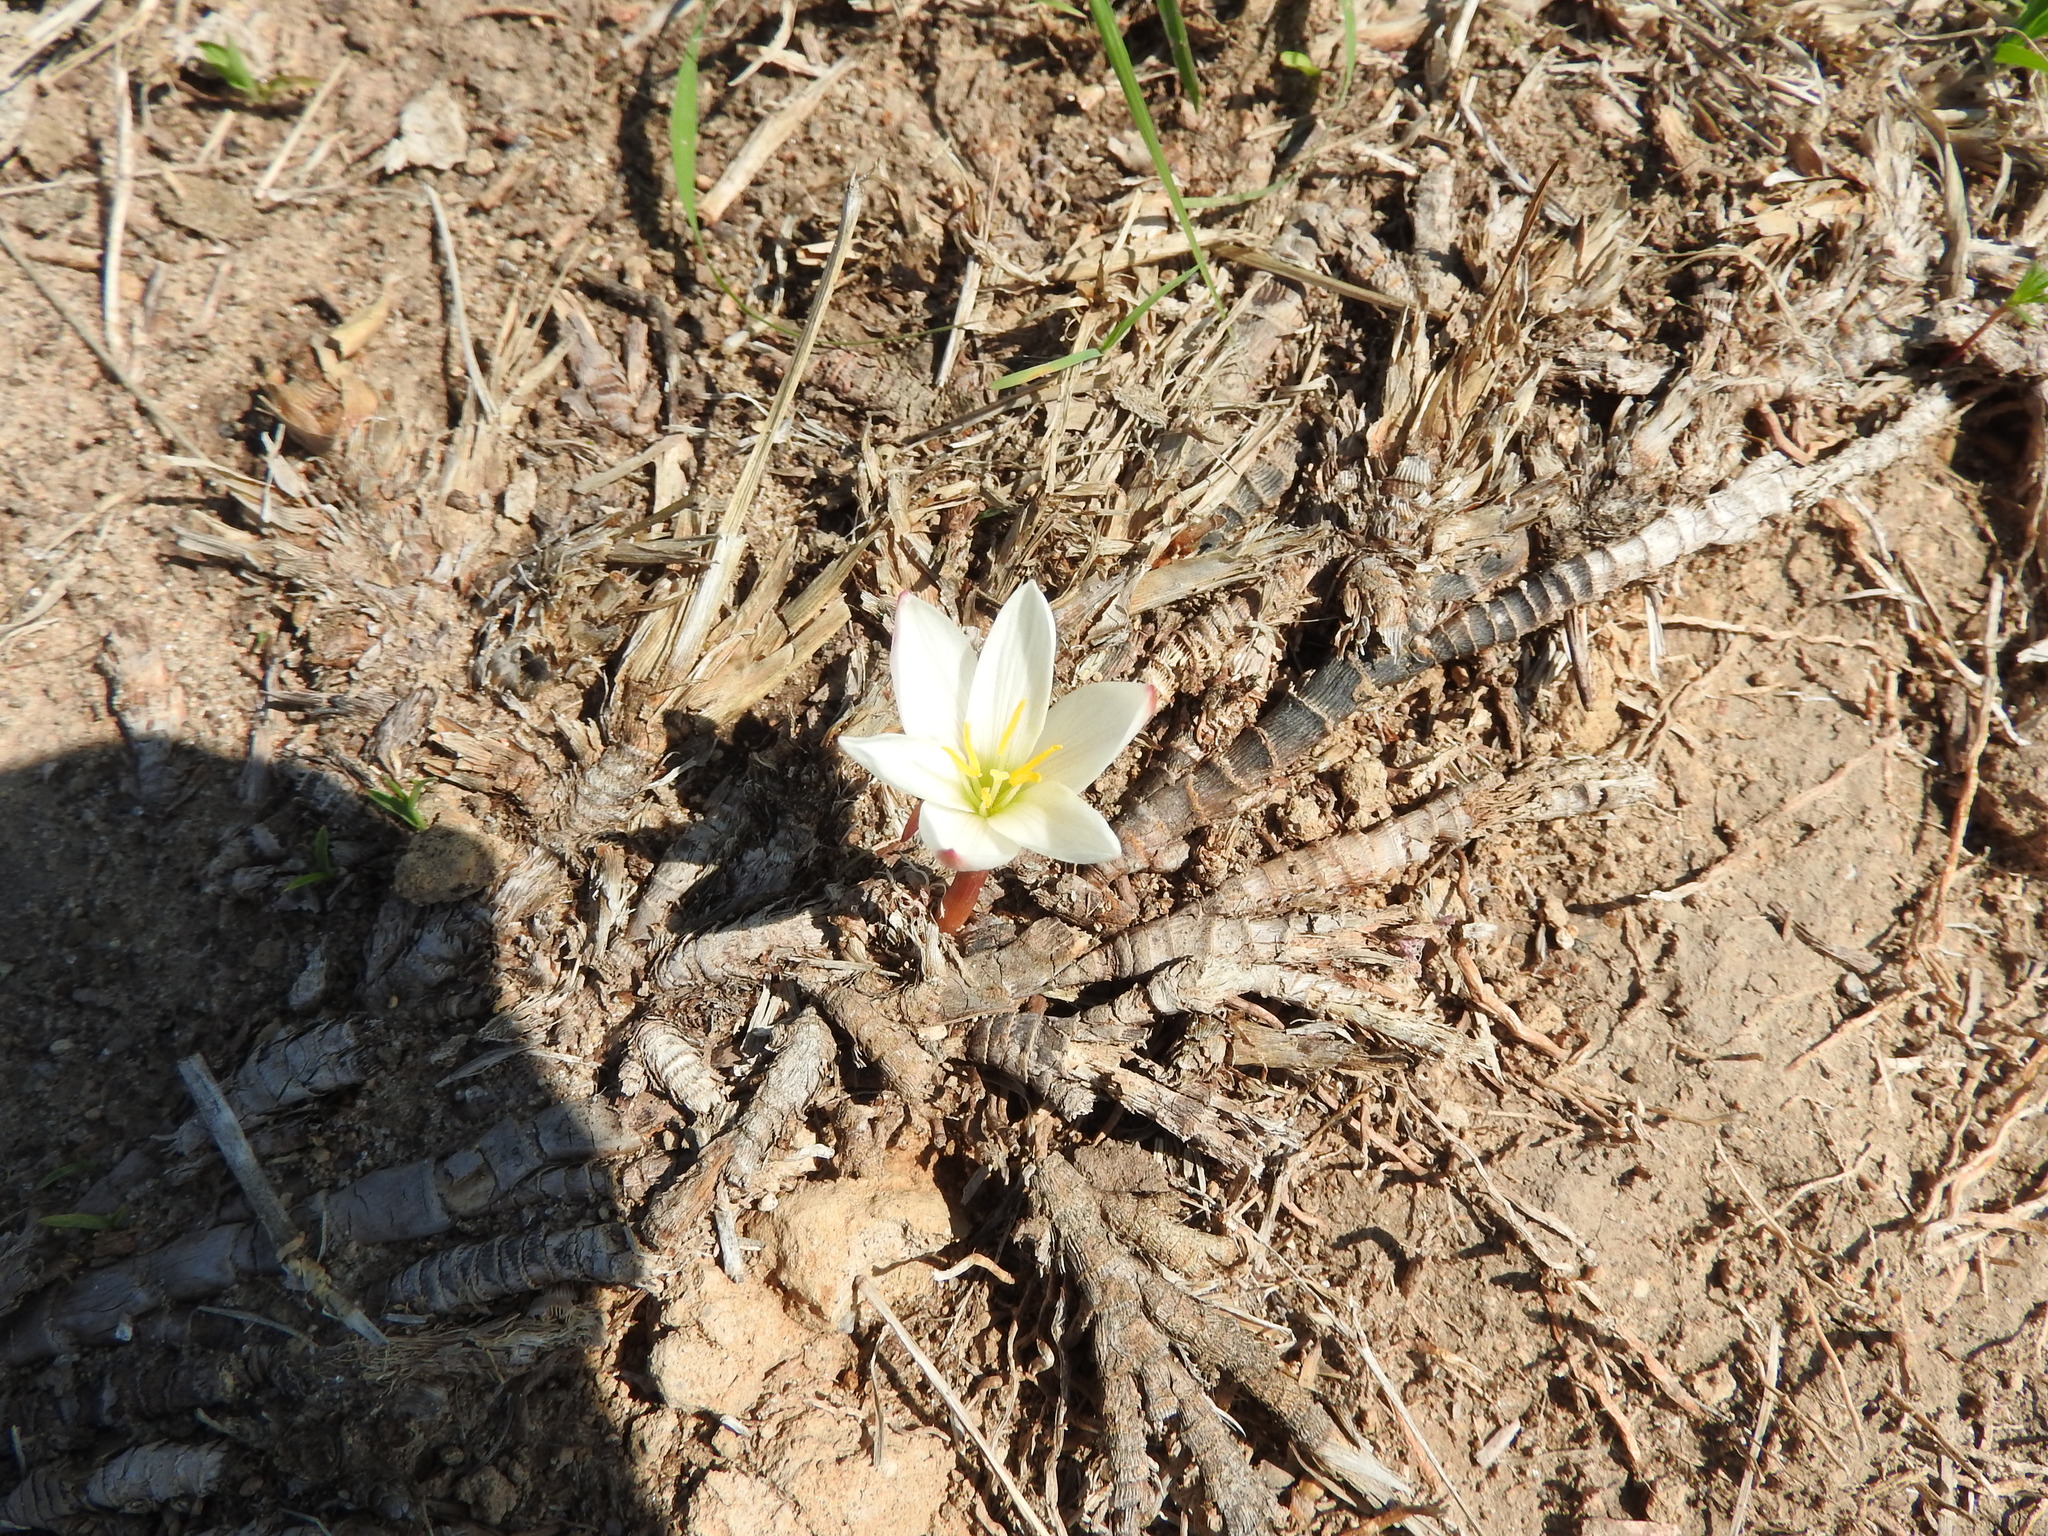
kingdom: Plantae
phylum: Tracheophyta
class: Liliopsida
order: Asparagales
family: Amaryllidaceae
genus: Zephyranthes
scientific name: Zephyranthes concolor
